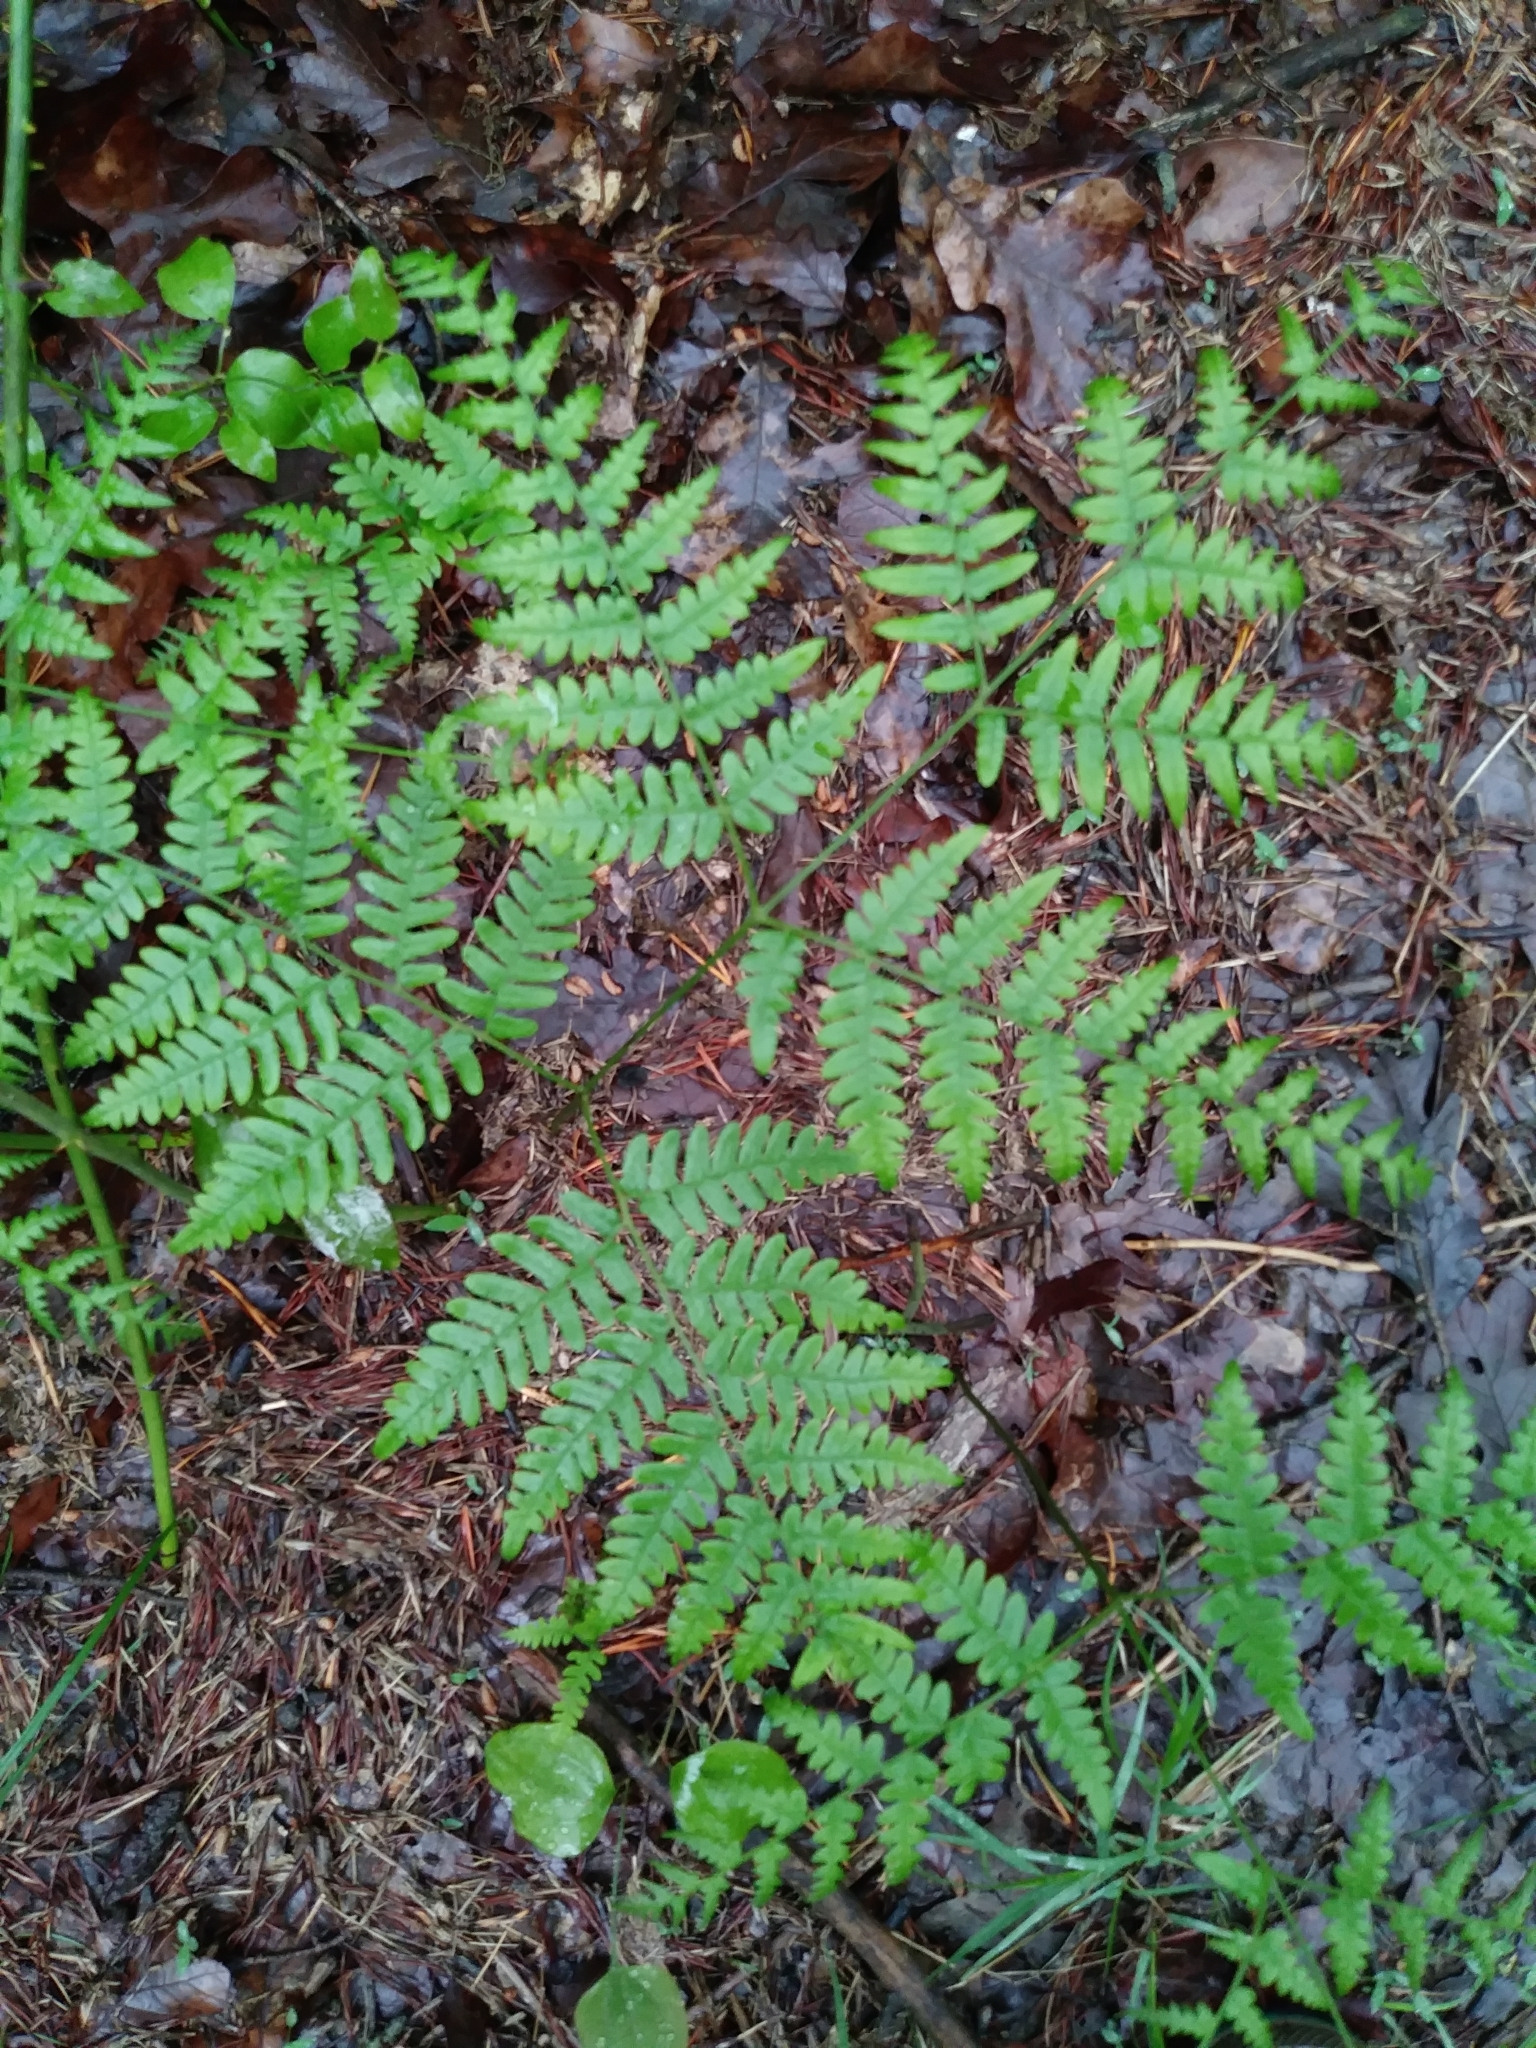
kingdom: Plantae
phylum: Tracheophyta
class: Polypodiopsida
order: Polypodiales
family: Dennstaedtiaceae
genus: Pteridium
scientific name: Pteridium aquilinum
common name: Bracken
